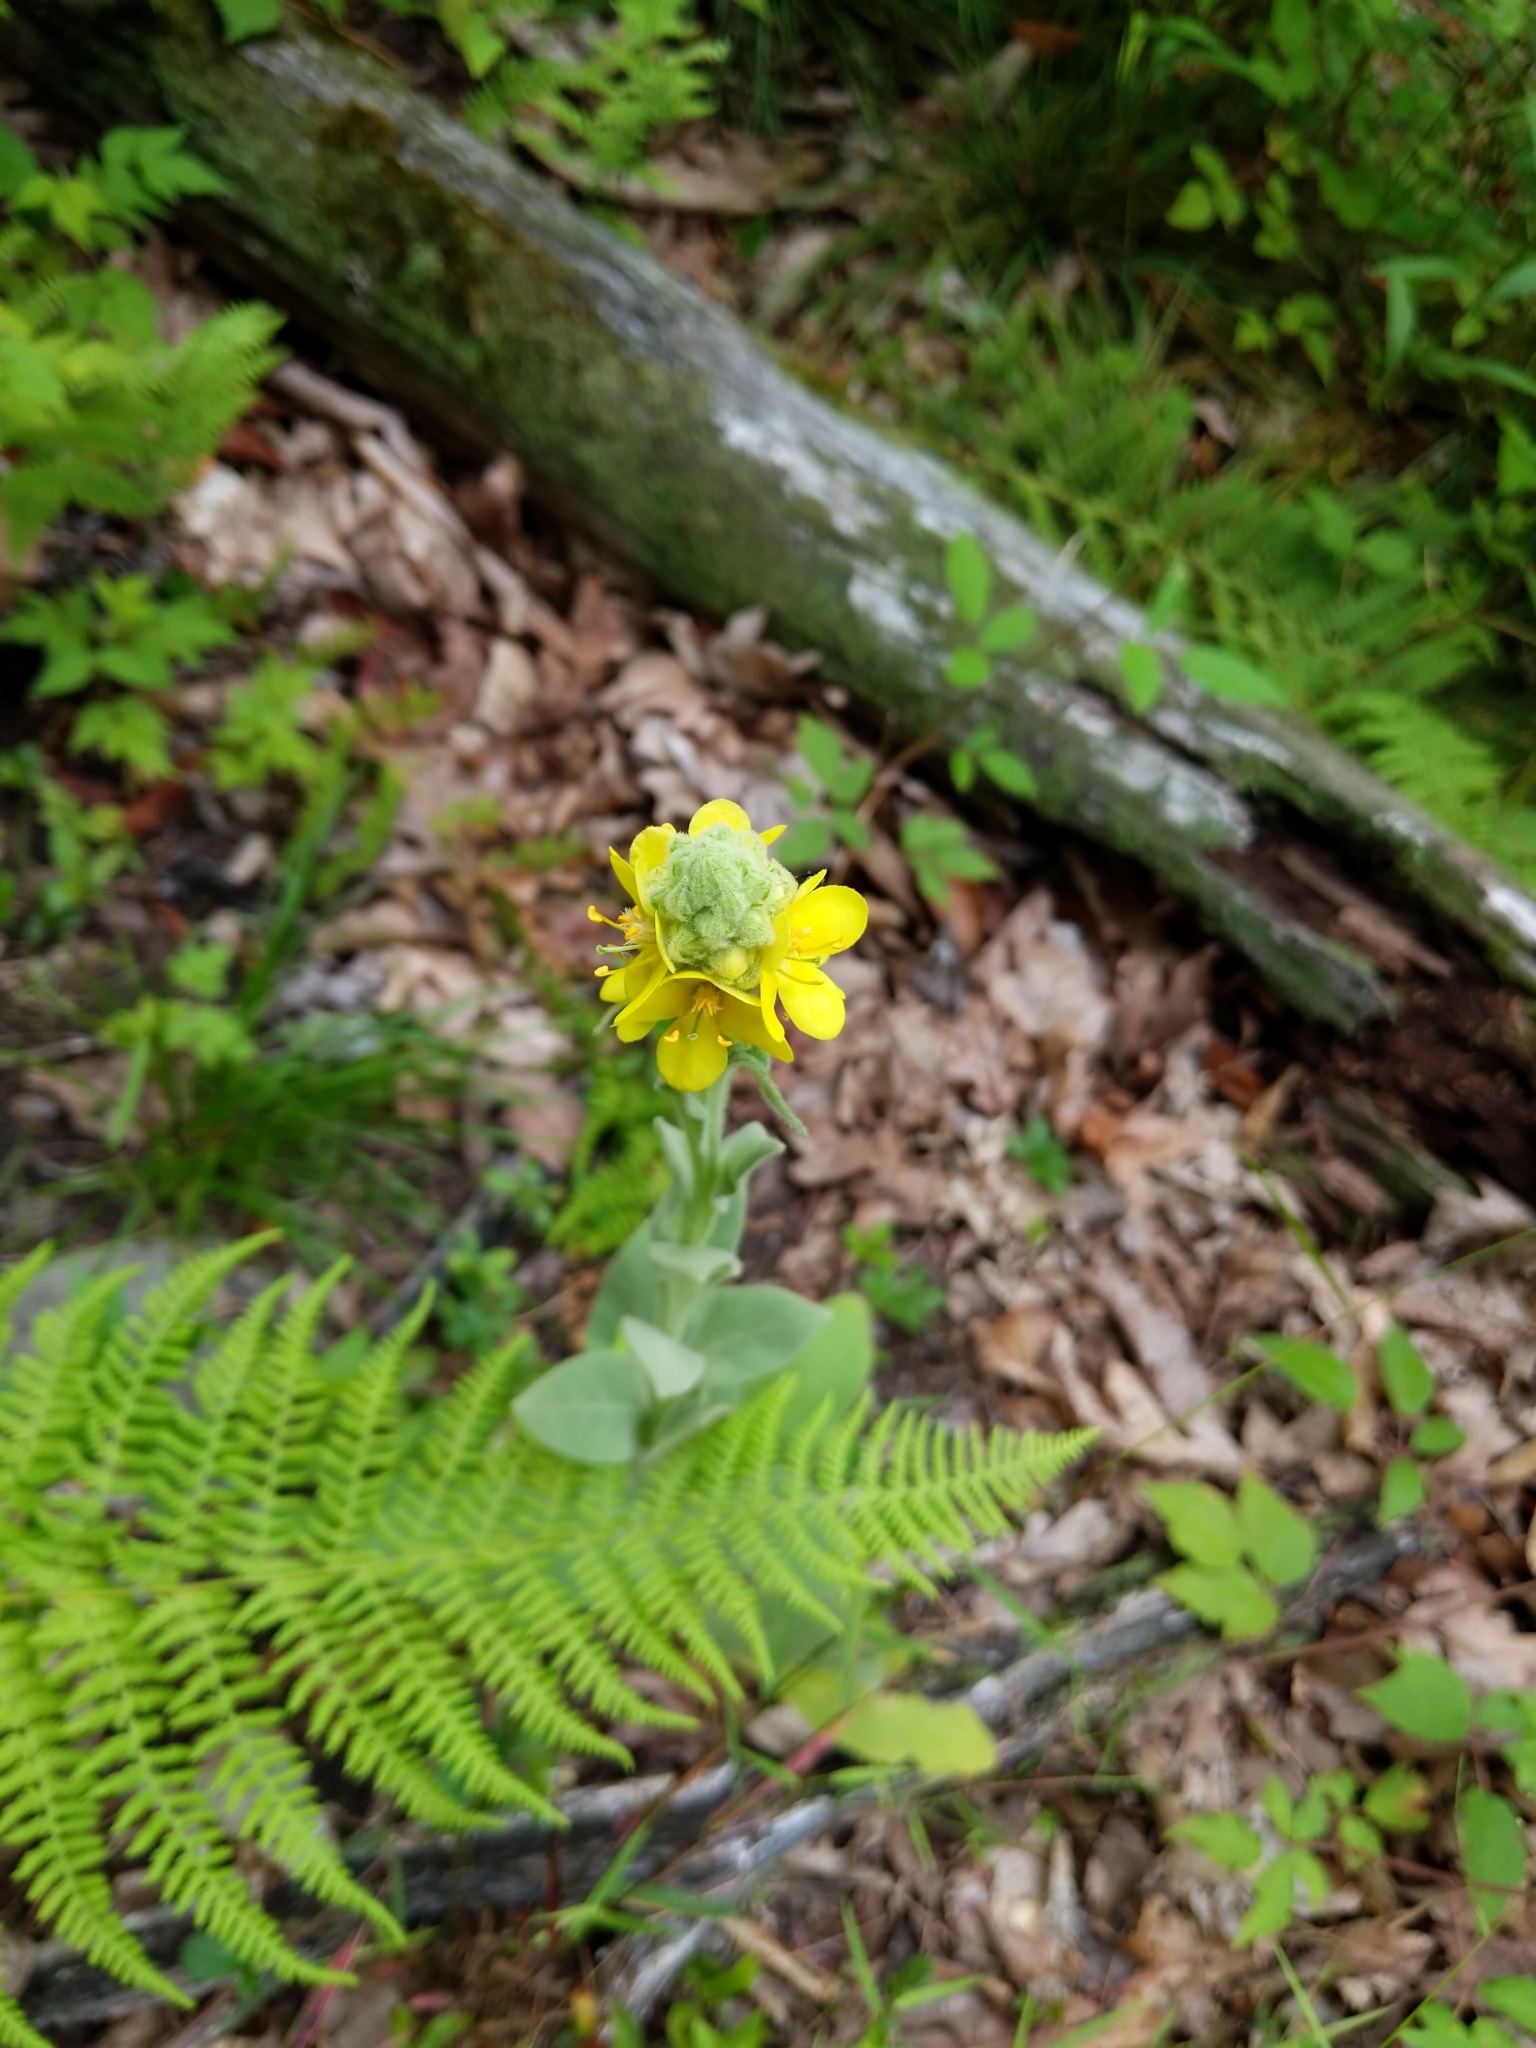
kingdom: Plantae
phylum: Tracheophyta
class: Magnoliopsida
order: Lamiales
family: Scrophulariaceae
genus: Verbascum
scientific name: Verbascum thapsus
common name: Common mullein
